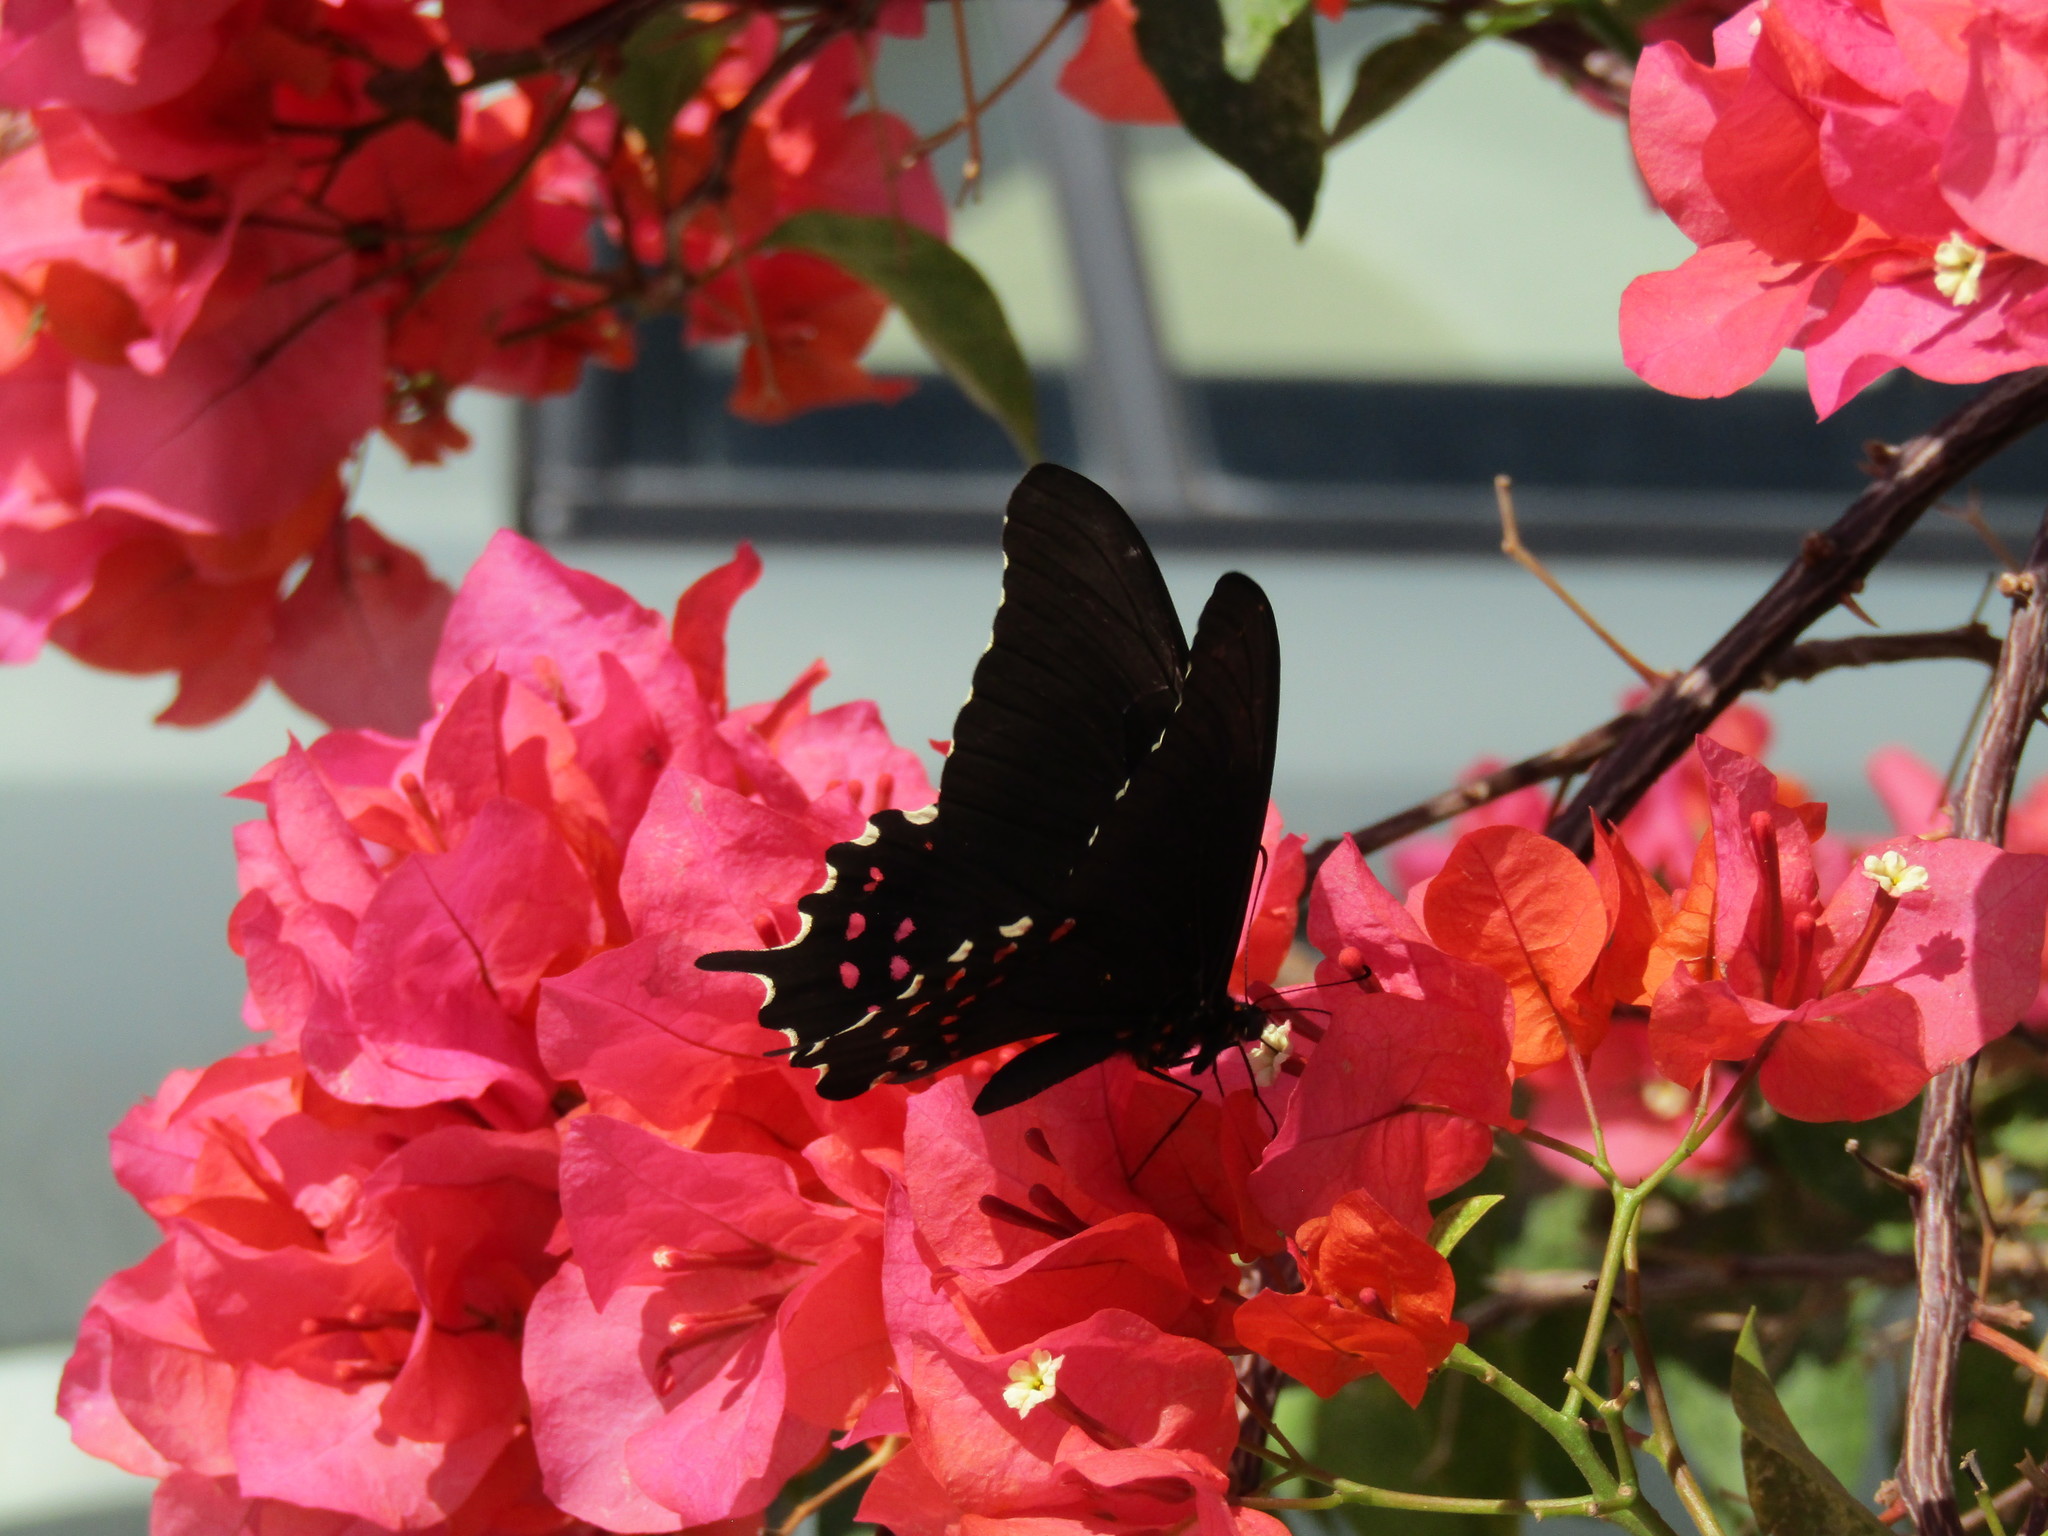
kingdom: Animalia
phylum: Arthropoda
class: Insecta
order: Lepidoptera
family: Papilionidae
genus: Heraclides
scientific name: Heraclides rogeri
